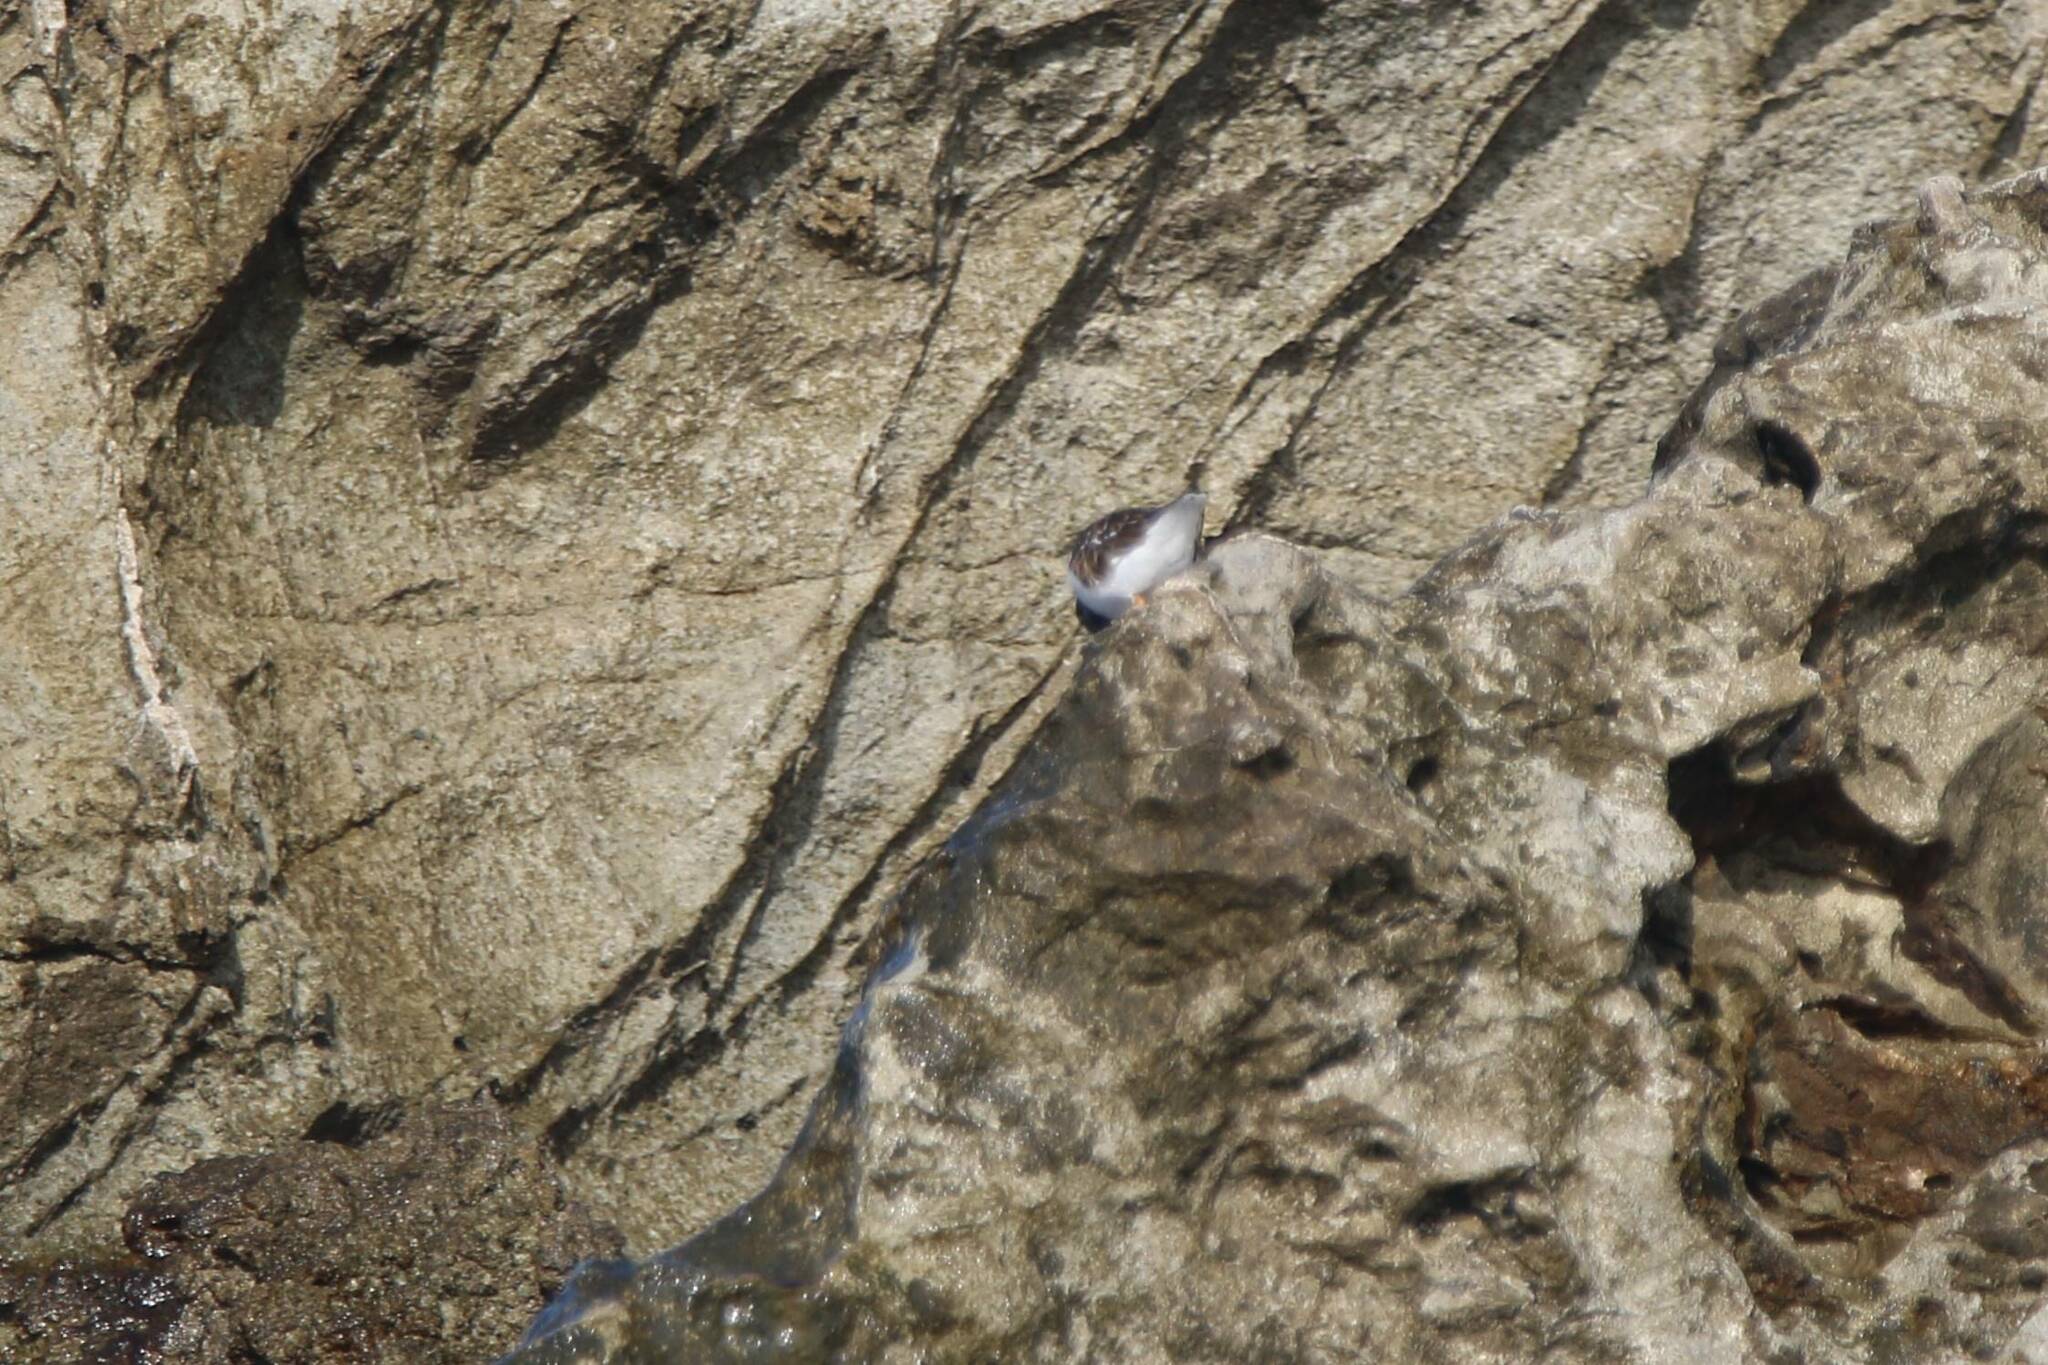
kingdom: Animalia
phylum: Chordata
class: Aves
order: Charadriiformes
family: Scolopacidae
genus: Arenaria
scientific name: Arenaria interpres
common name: Ruddy turnstone
